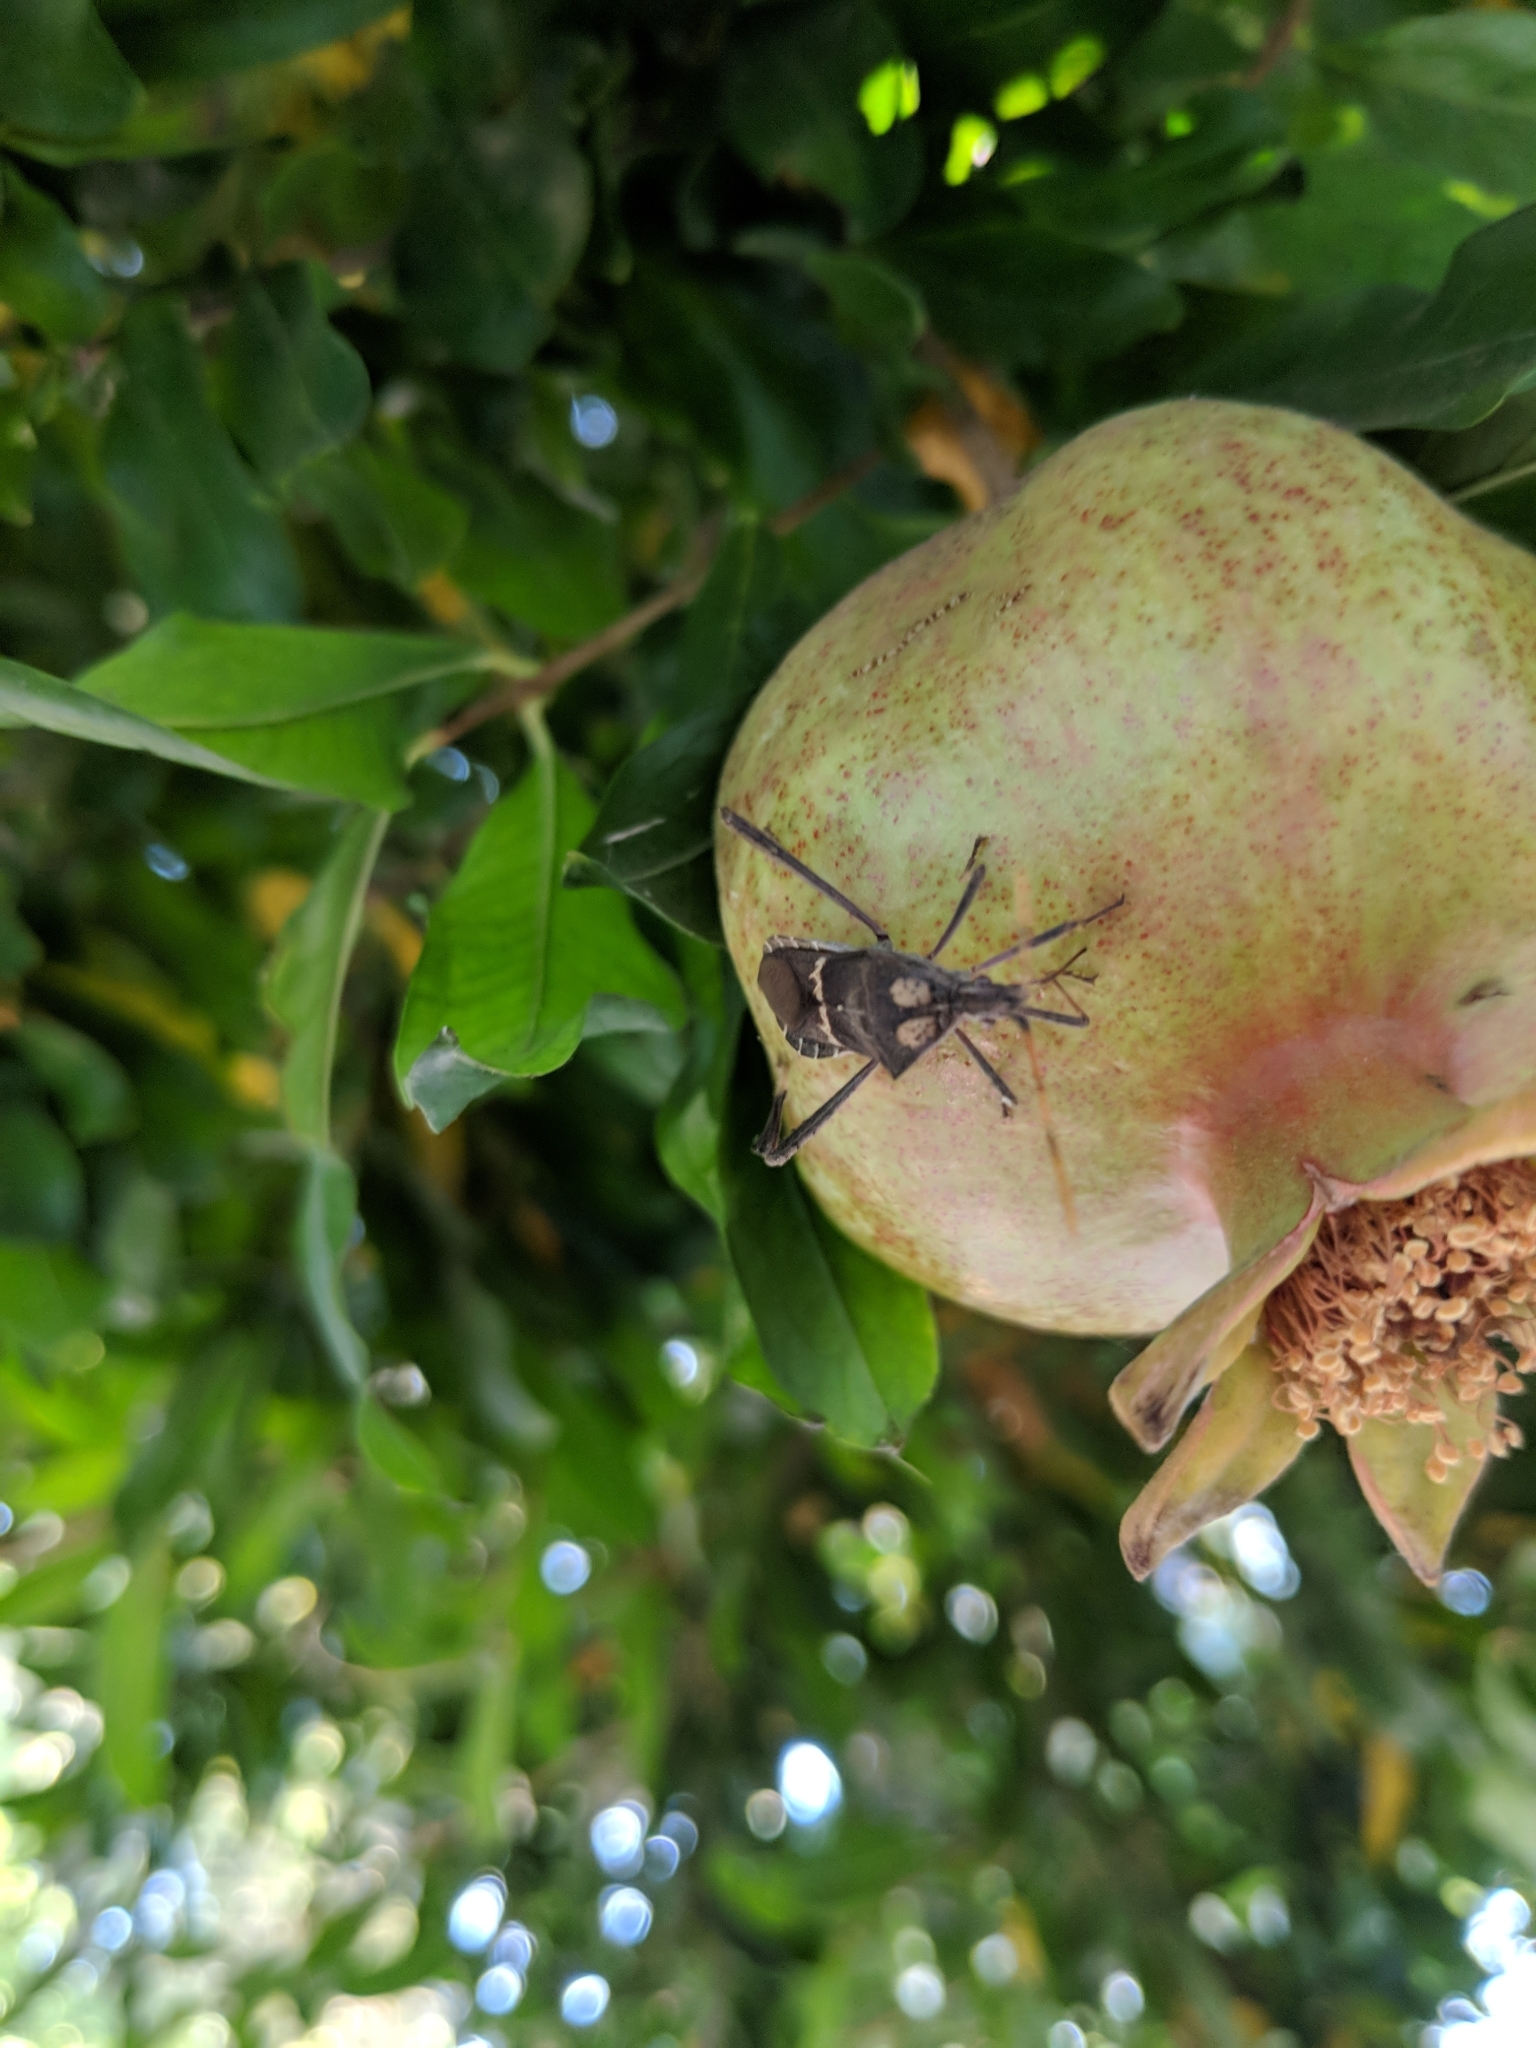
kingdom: Animalia
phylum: Arthropoda
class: Insecta
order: Hemiptera
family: Coreidae
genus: Leptoglossus
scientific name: Leptoglossus zonatus
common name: Large-legged bug
